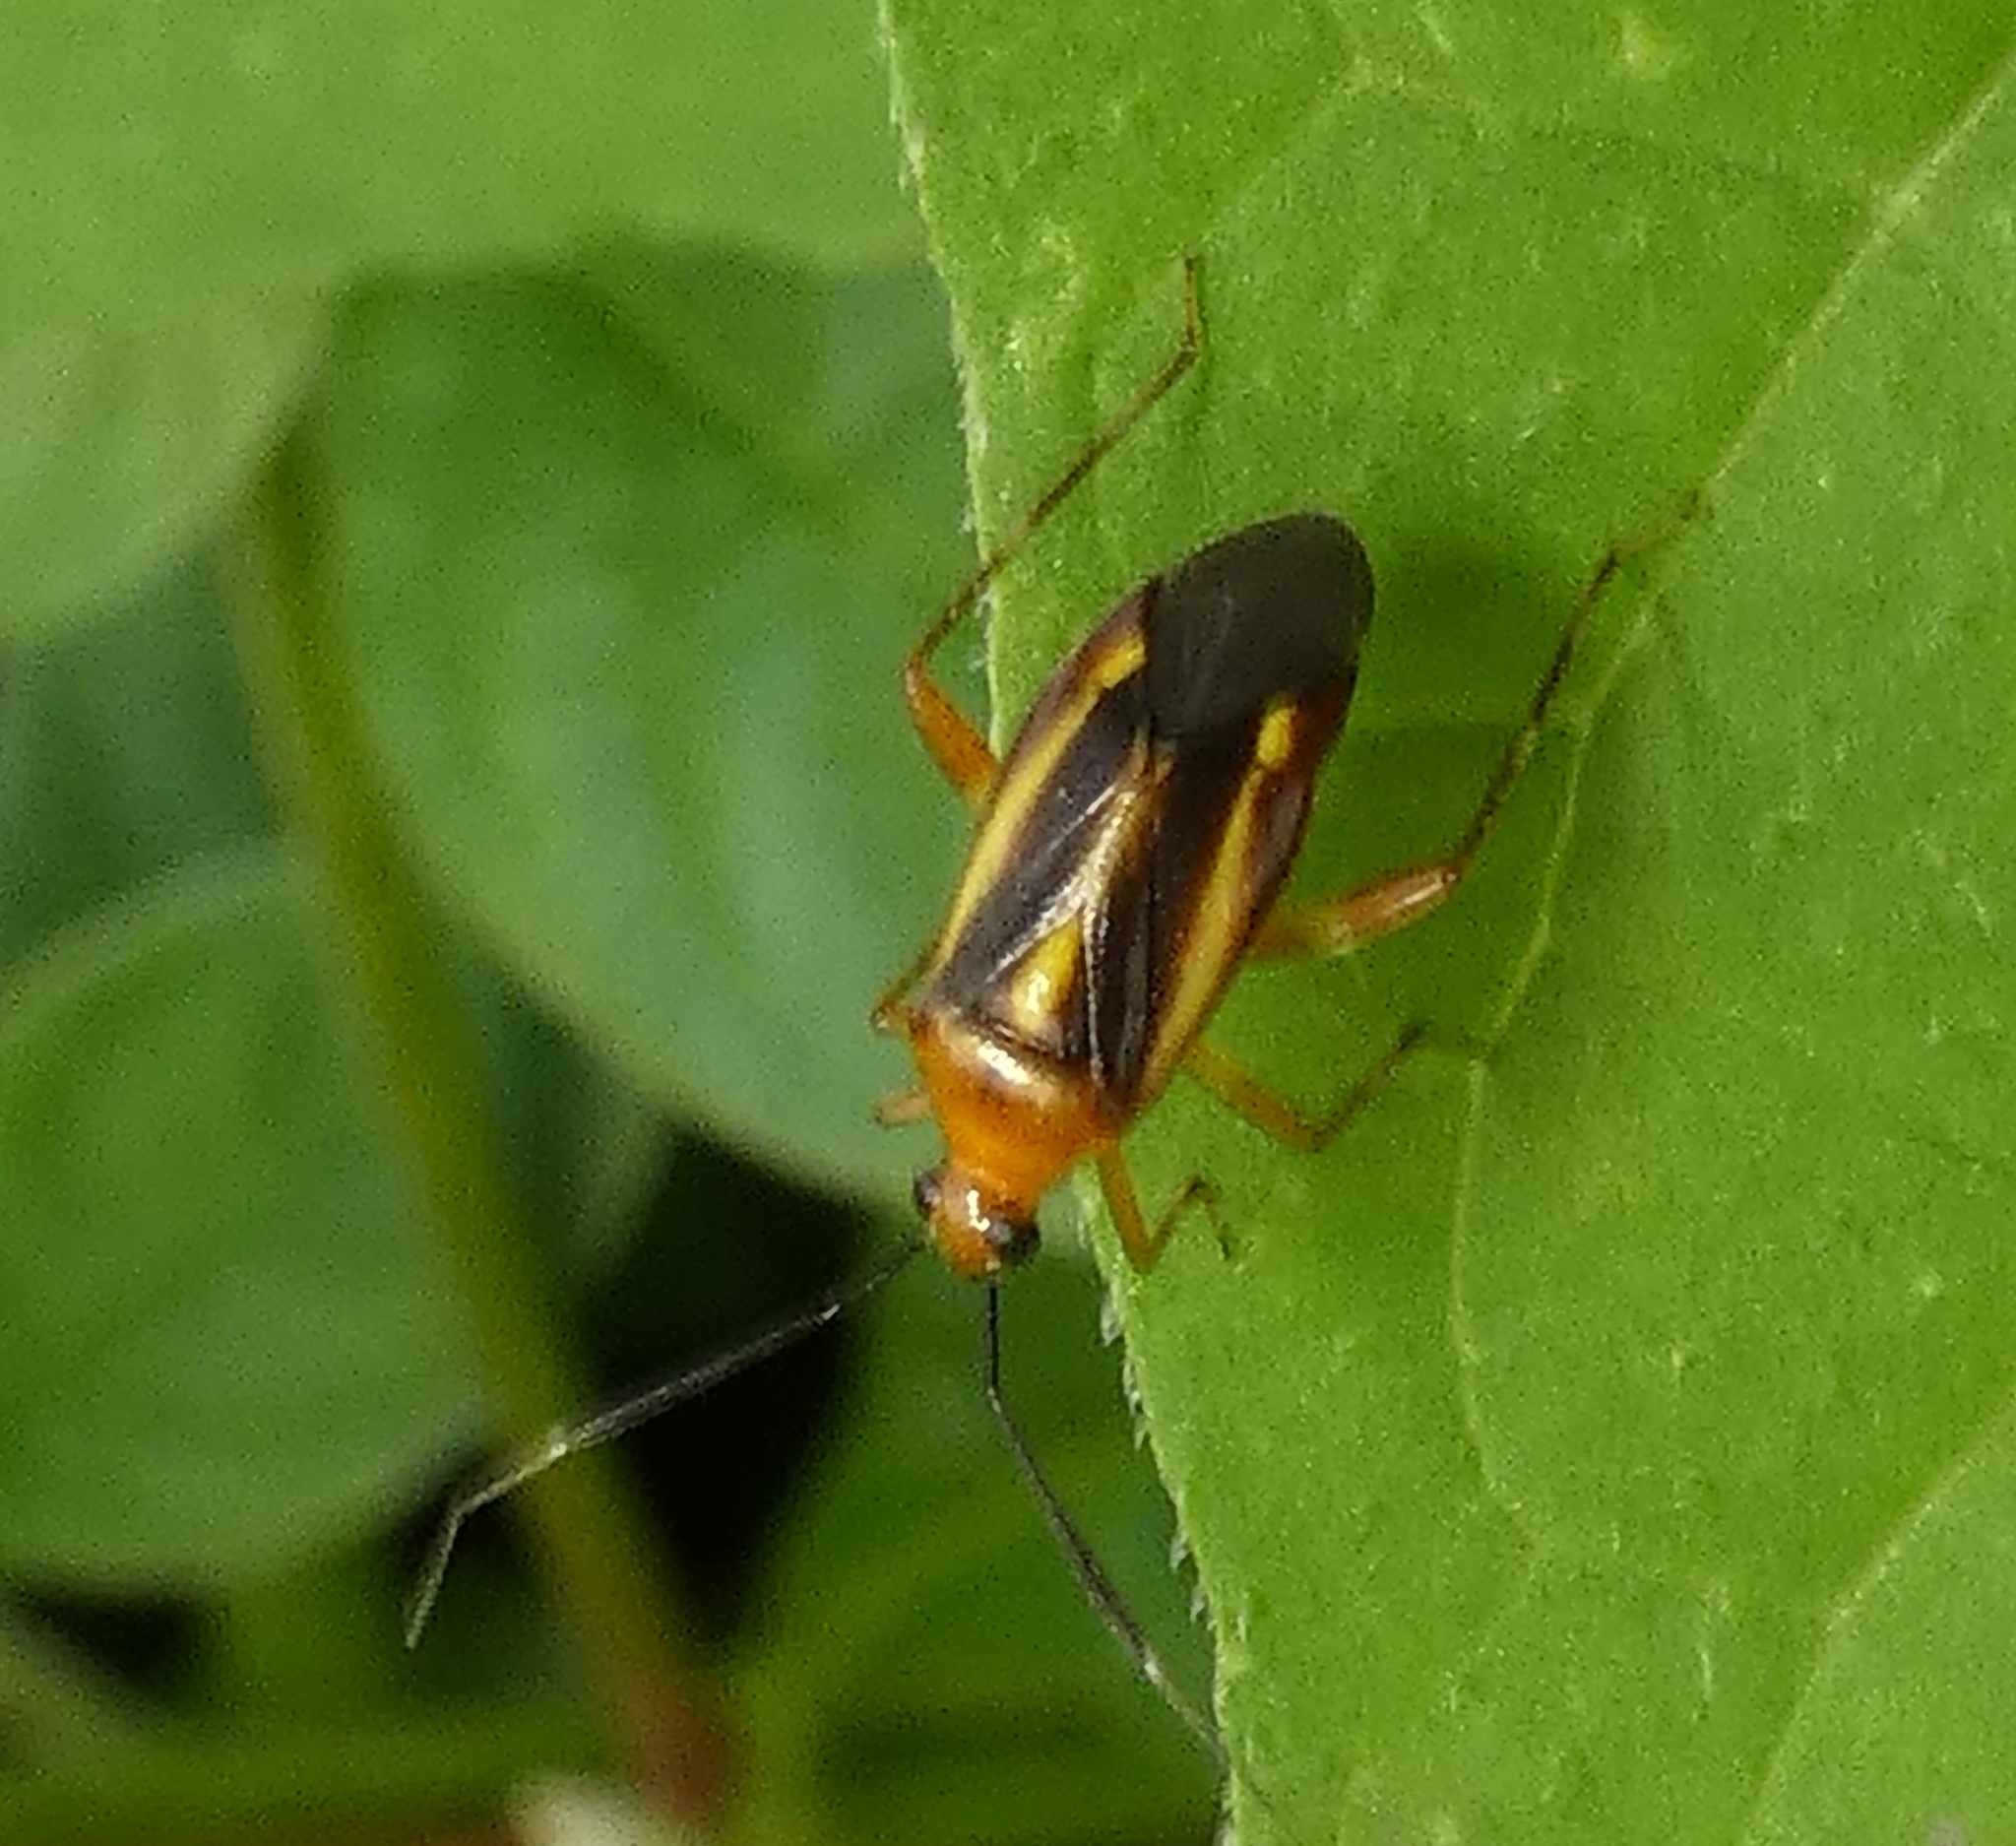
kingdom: Animalia
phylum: Arthropoda
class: Insecta
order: Hemiptera
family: Miridae
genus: Horciasinus
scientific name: Horciasinus signoreti
